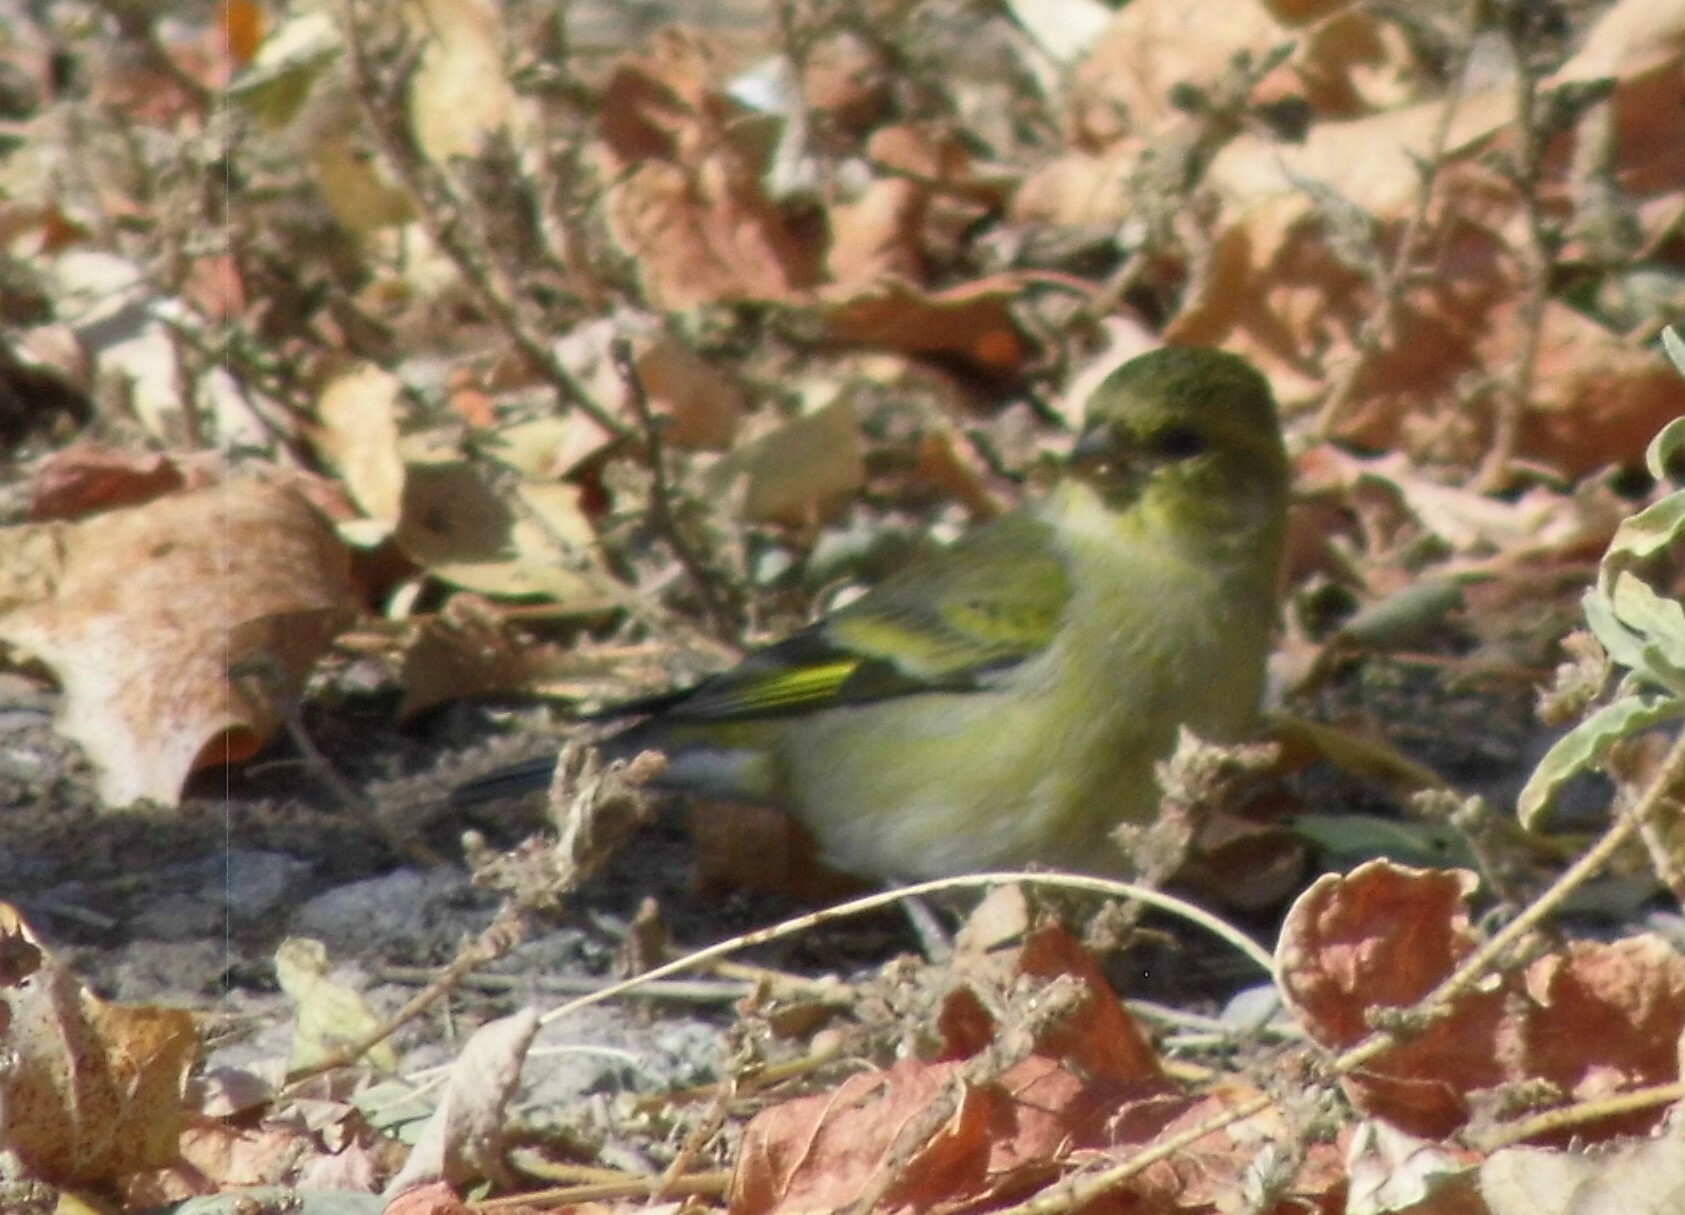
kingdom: Animalia
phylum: Chordata
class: Aves
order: Passeriformes
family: Fringillidae
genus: Spinus
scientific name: Spinus barbatus
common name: Black-chinned siskin
